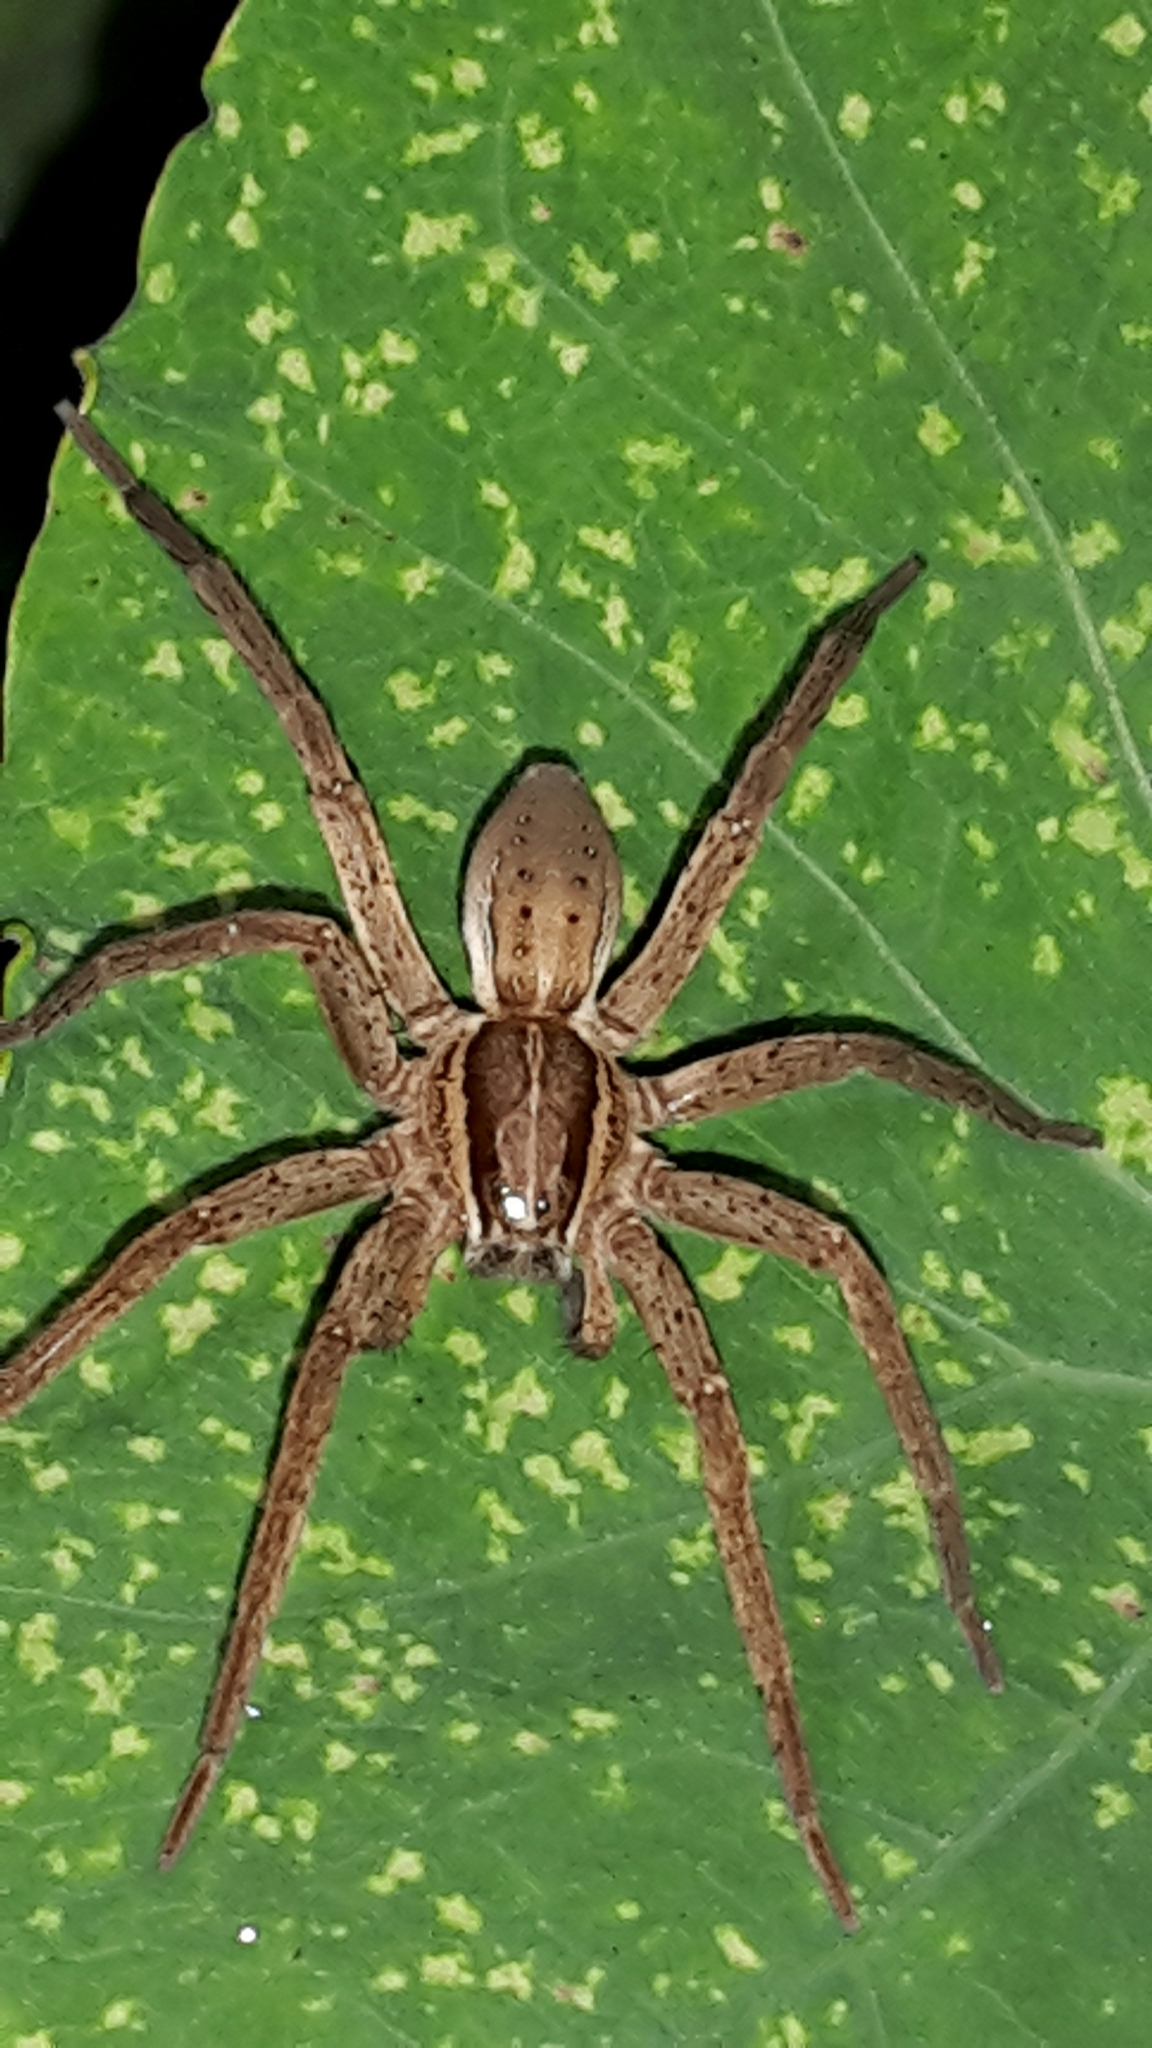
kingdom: Animalia
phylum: Arthropoda
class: Arachnida
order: Araneae
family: Pisauridae
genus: Dolomedes
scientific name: Dolomedes minor
